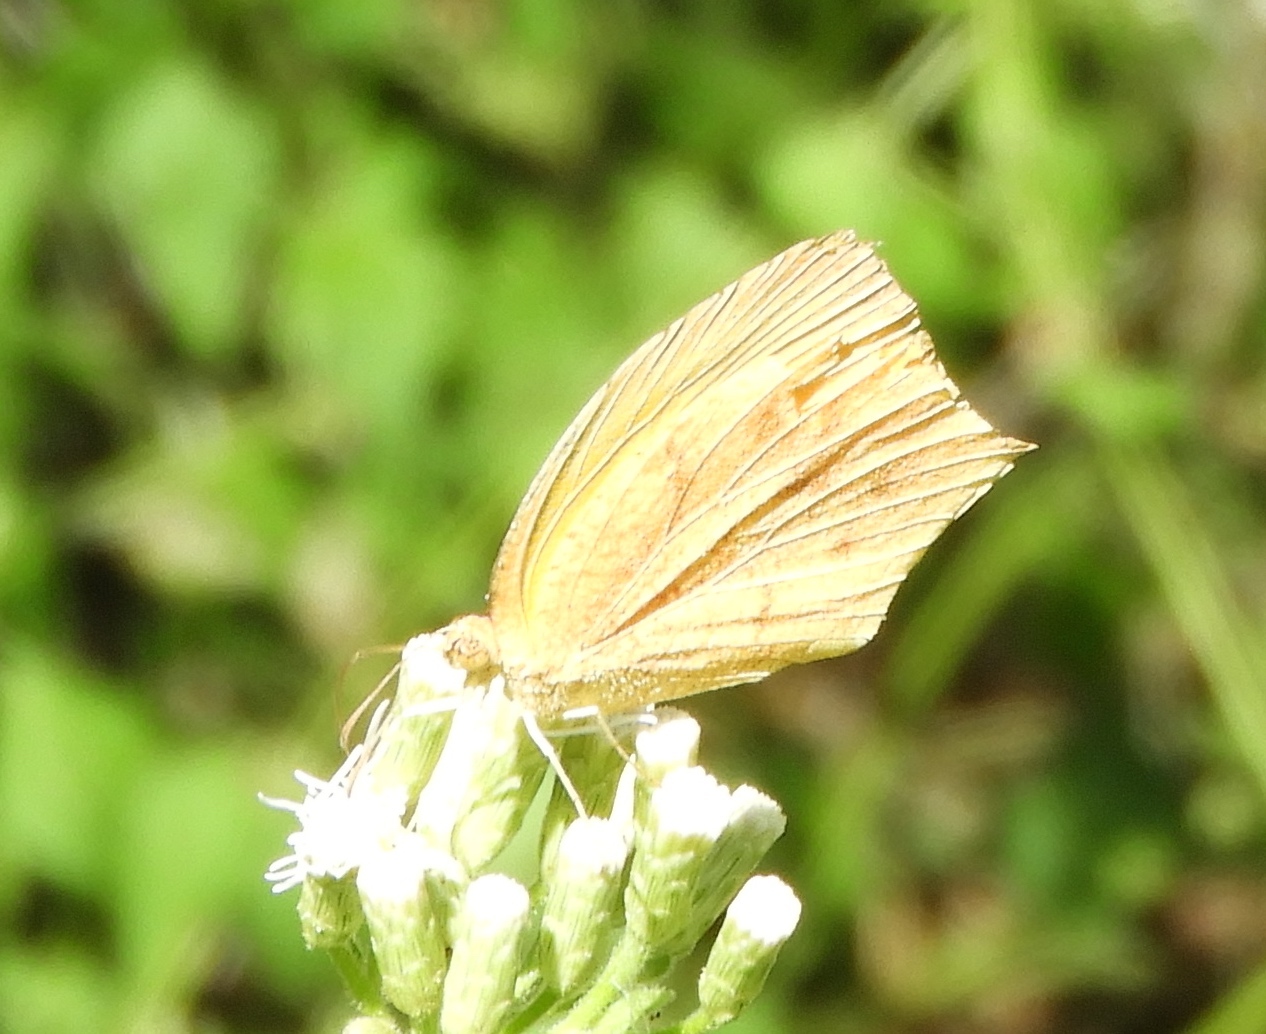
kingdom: Animalia
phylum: Arthropoda
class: Insecta
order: Lepidoptera
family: Pieridae
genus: Pyrisitia
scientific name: Pyrisitia proterpia
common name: Tailed orange
